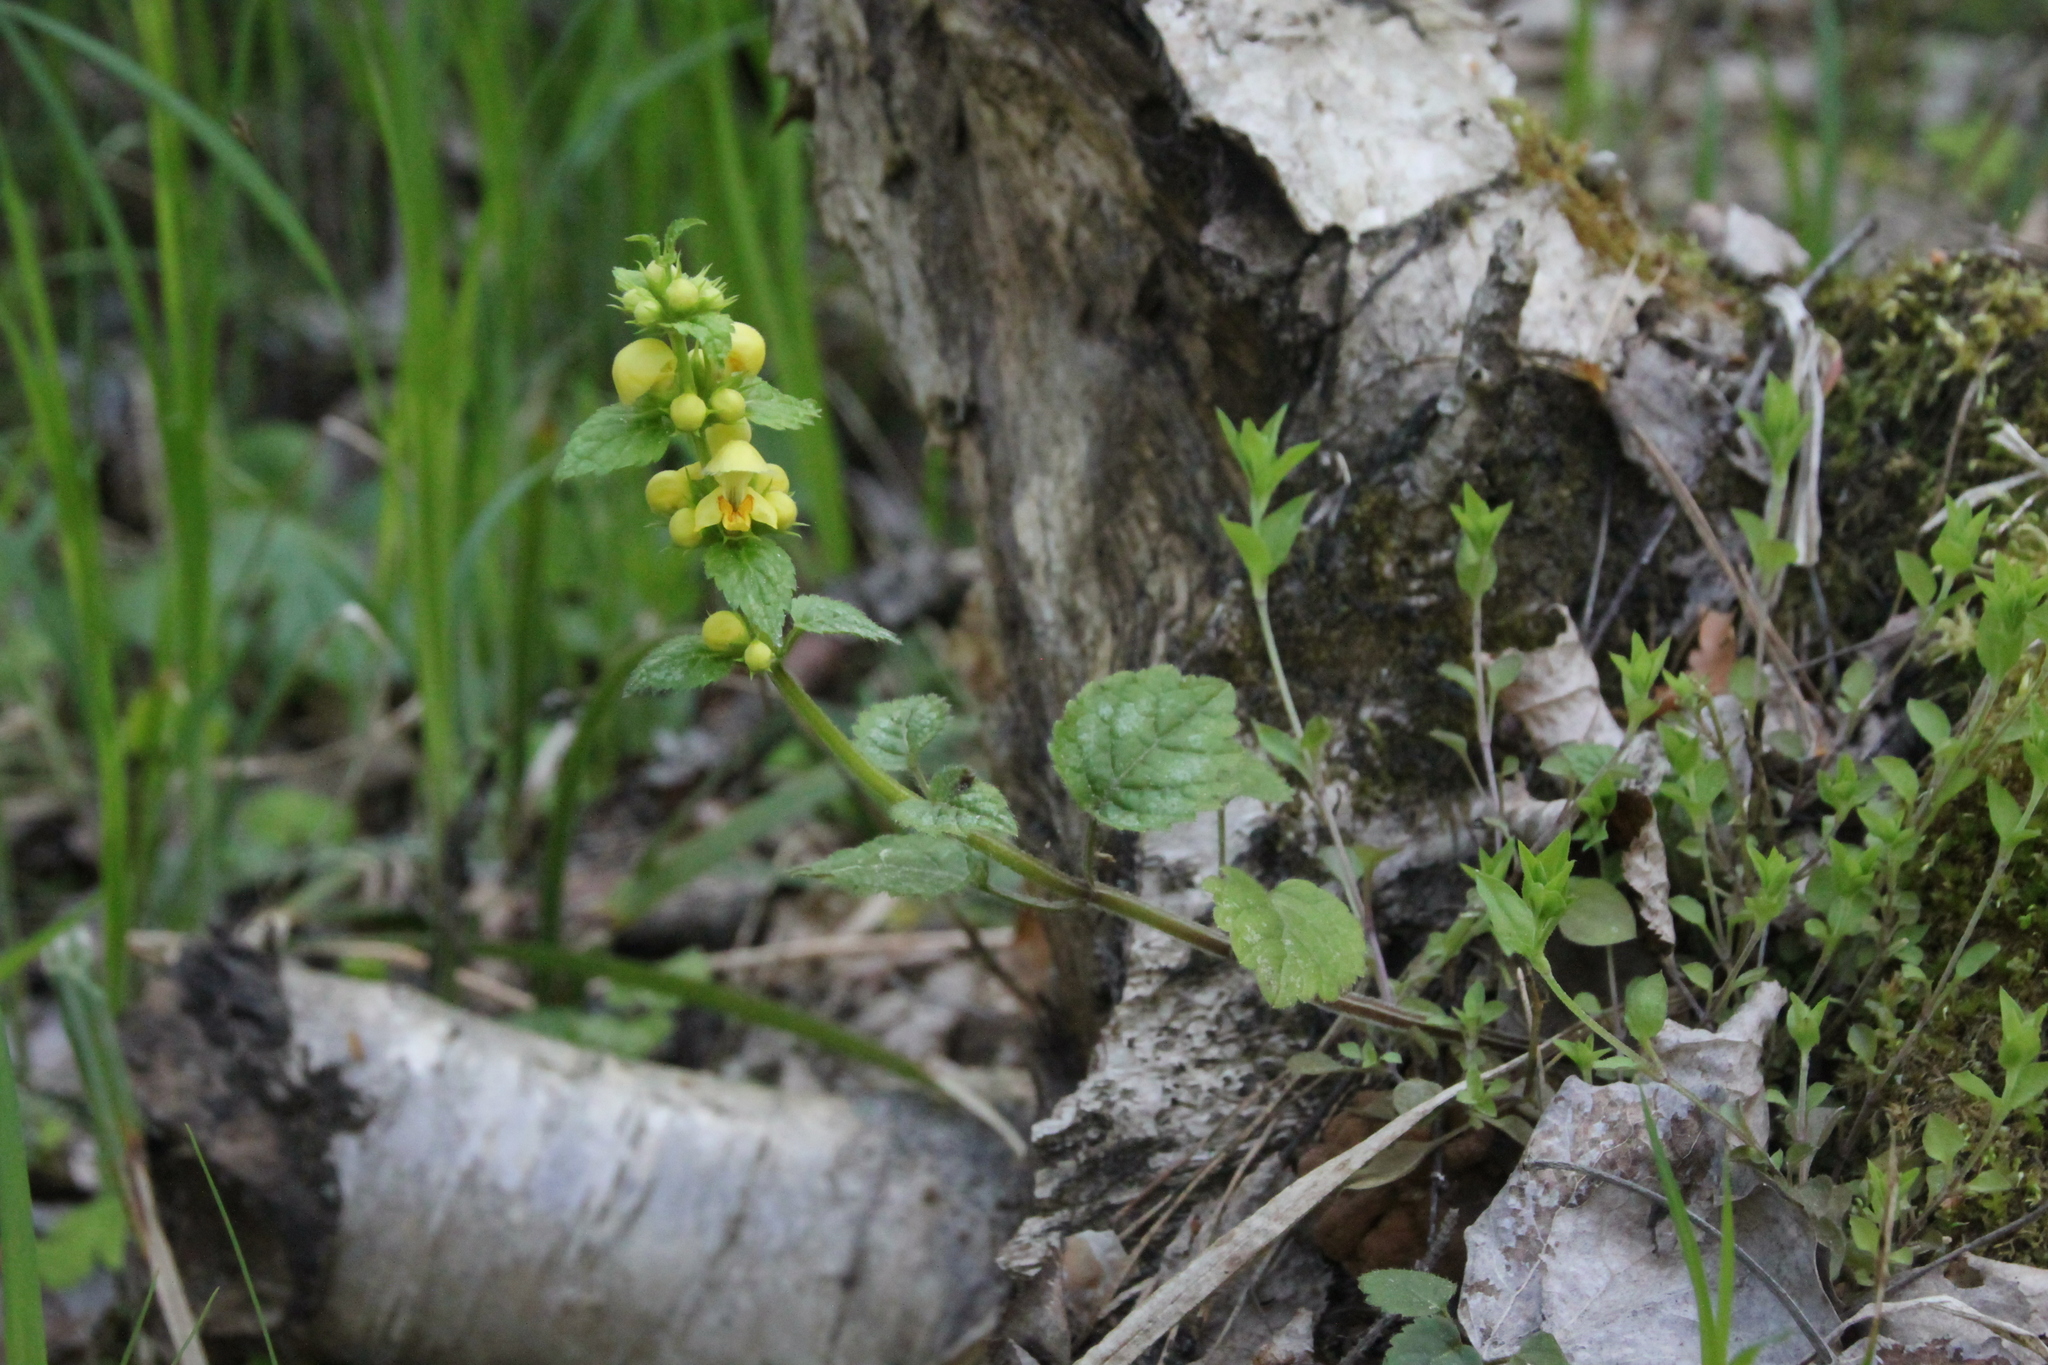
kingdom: Plantae
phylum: Tracheophyta
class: Magnoliopsida
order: Lamiales
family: Lamiaceae
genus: Lamium
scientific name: Lamium galeobdolon
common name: Yellow archangel
